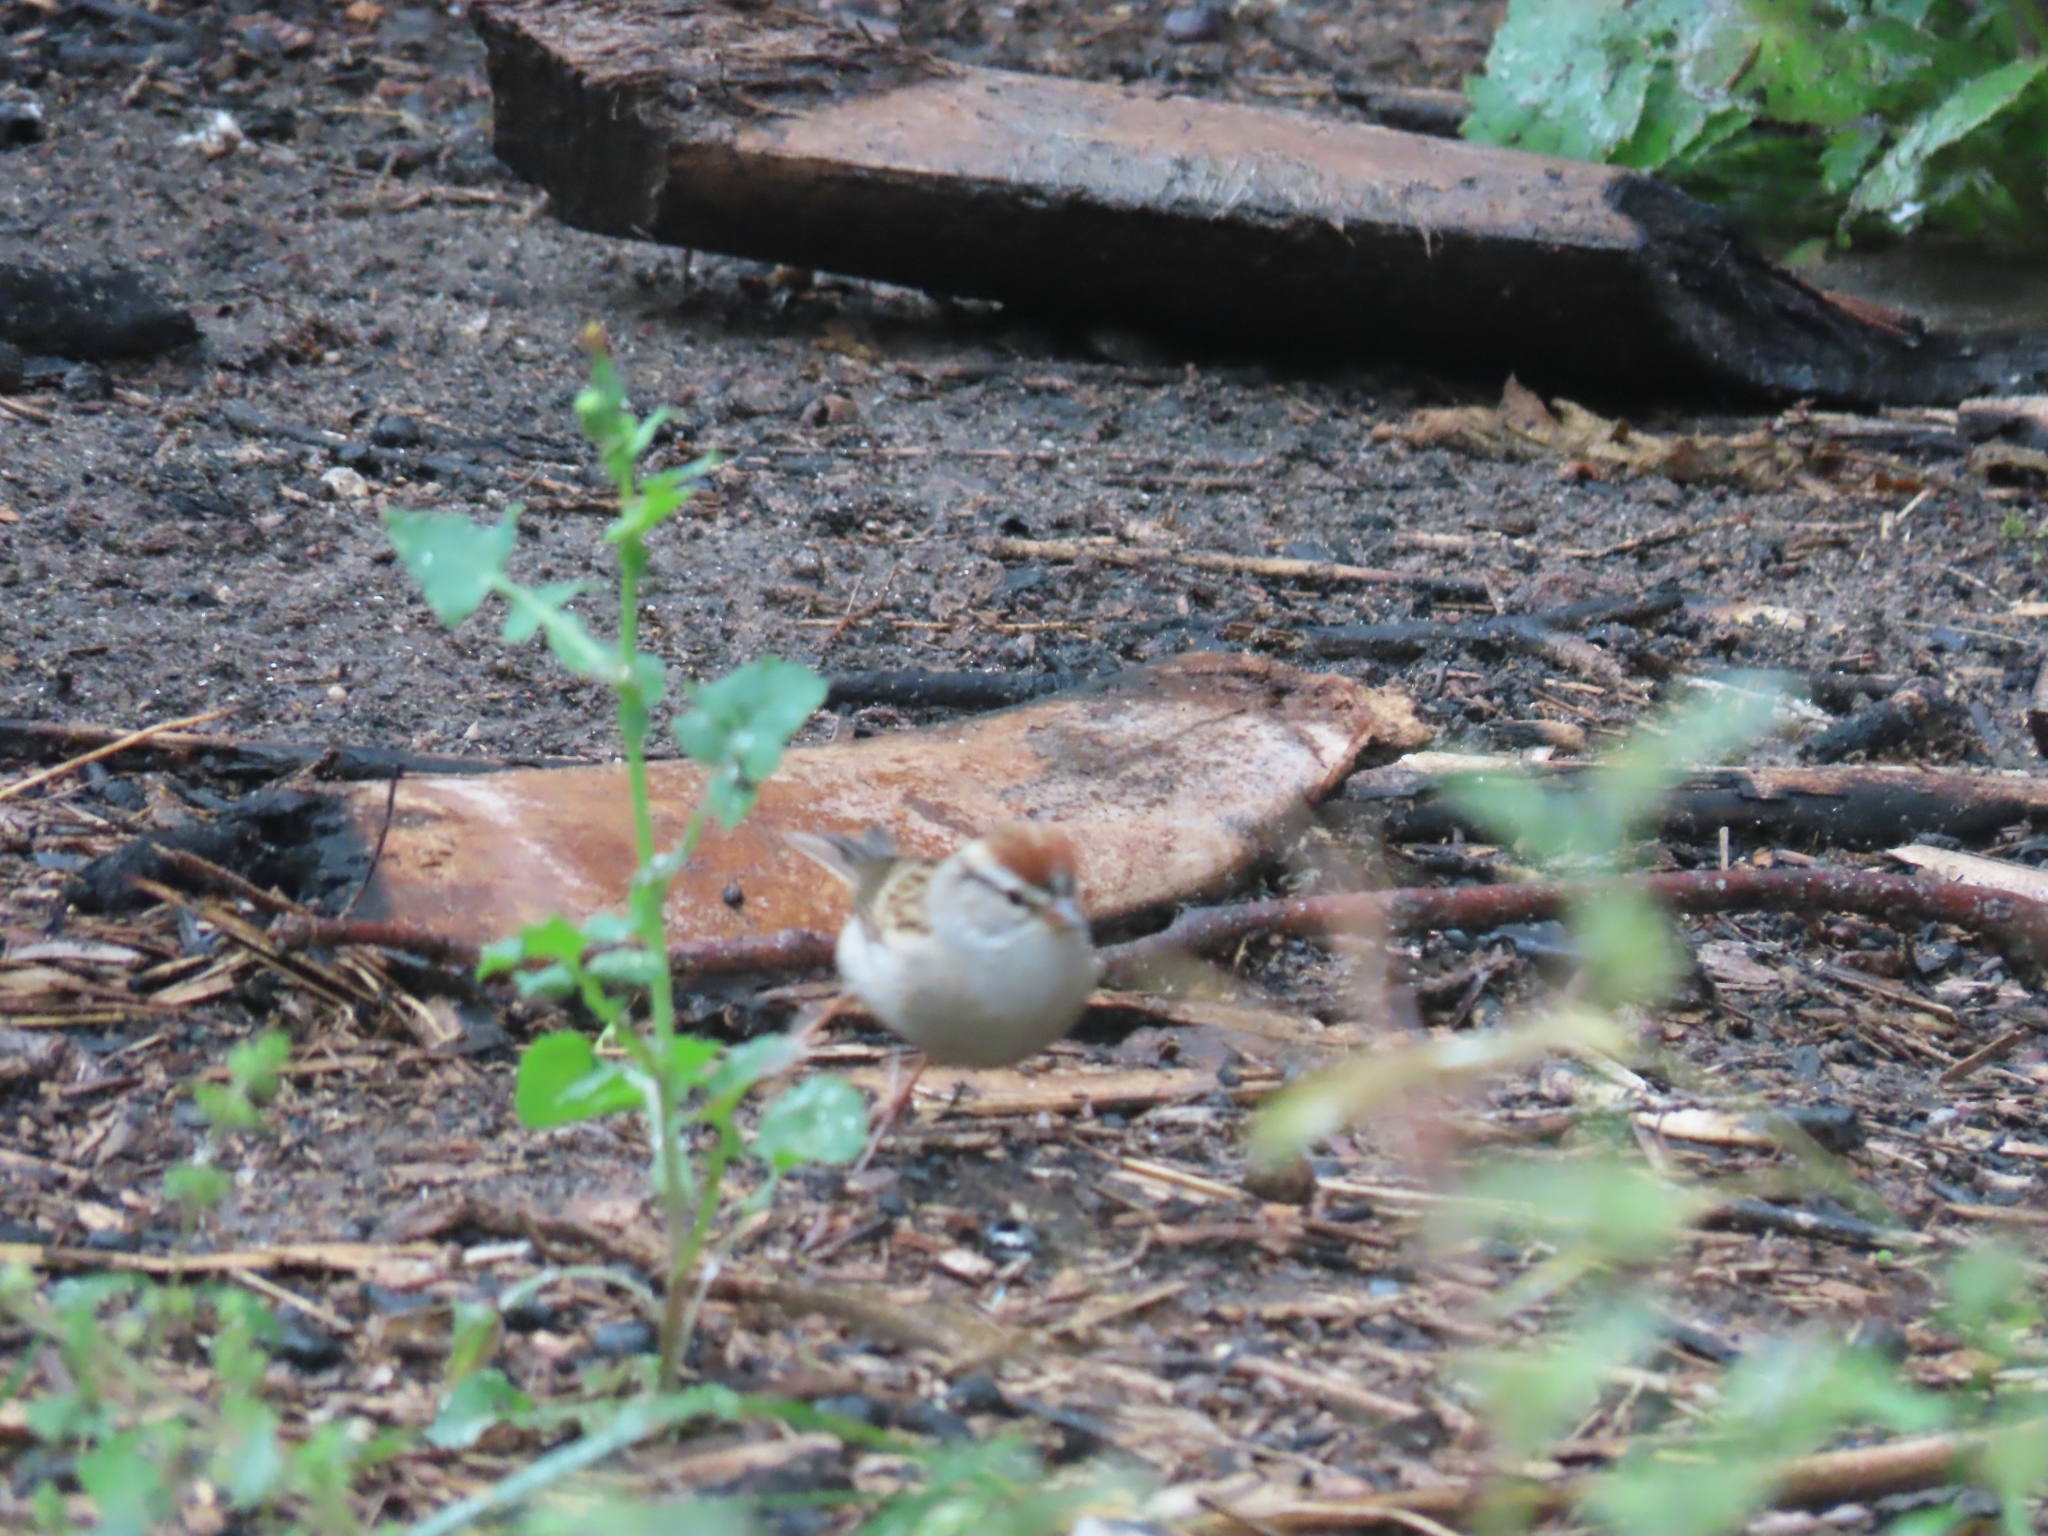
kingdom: Animalia
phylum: Chordata
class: Aves
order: Passeriformes
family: Passerellidae
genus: Spizella
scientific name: Spizella passerina
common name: Chipping sparrow
